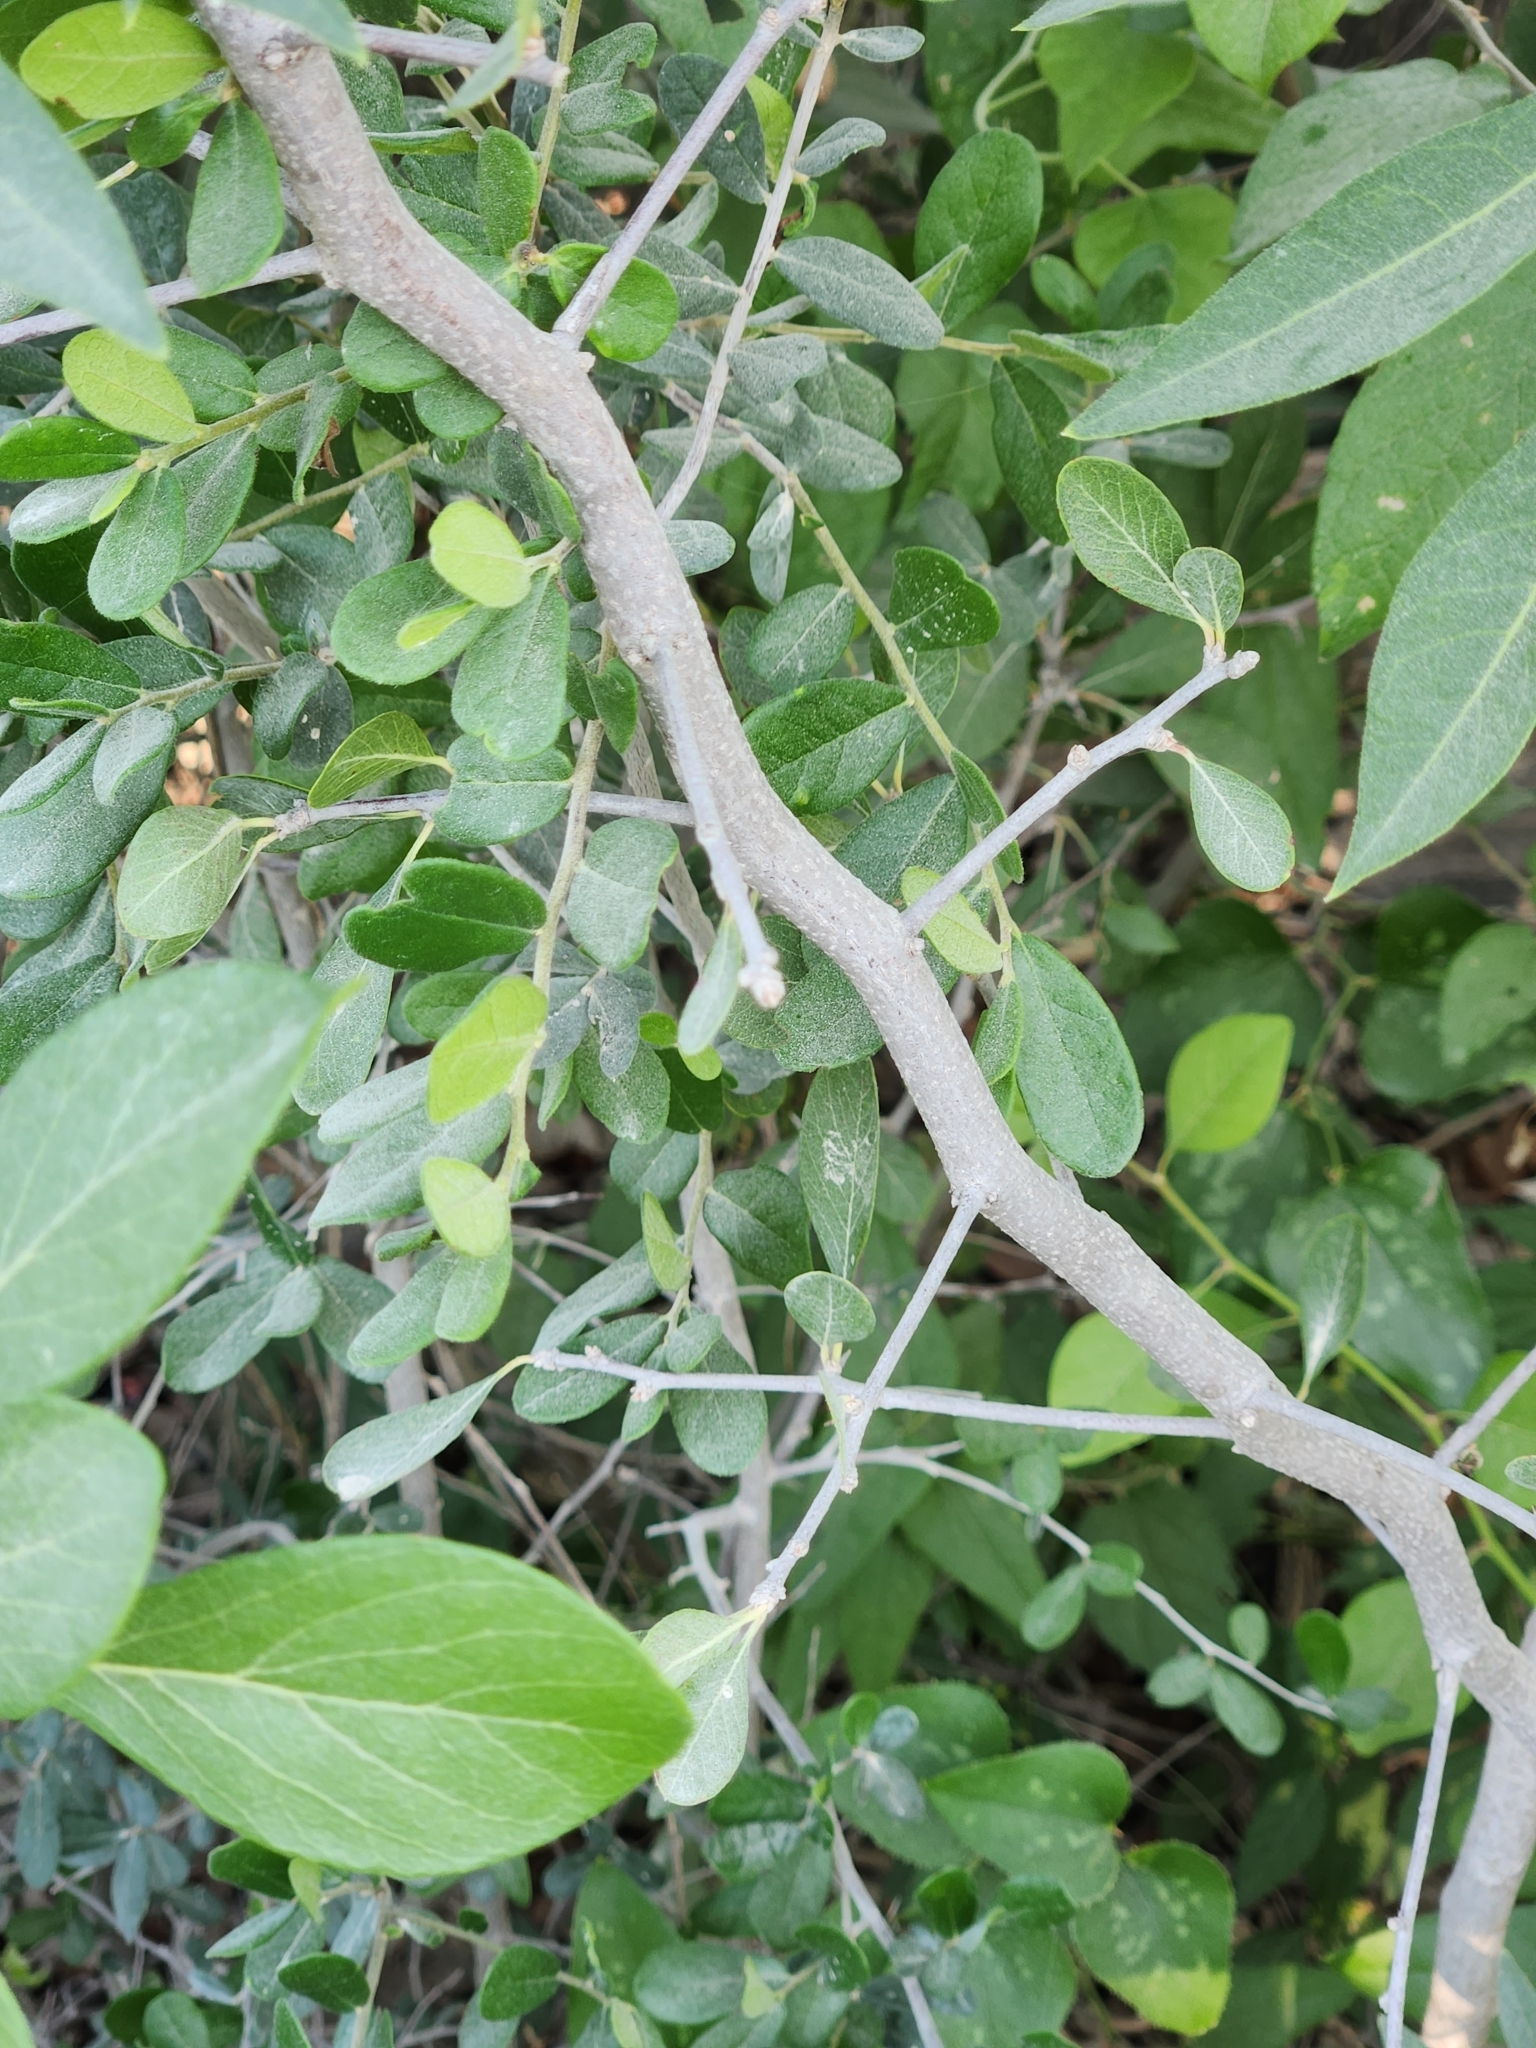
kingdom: Plantae
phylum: Tracheophyta
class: Magnoliopsida
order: Ericales
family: Sapotaceae
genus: Sideroxylon
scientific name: Sideroxylon lanuginosum
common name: Chittamwood
